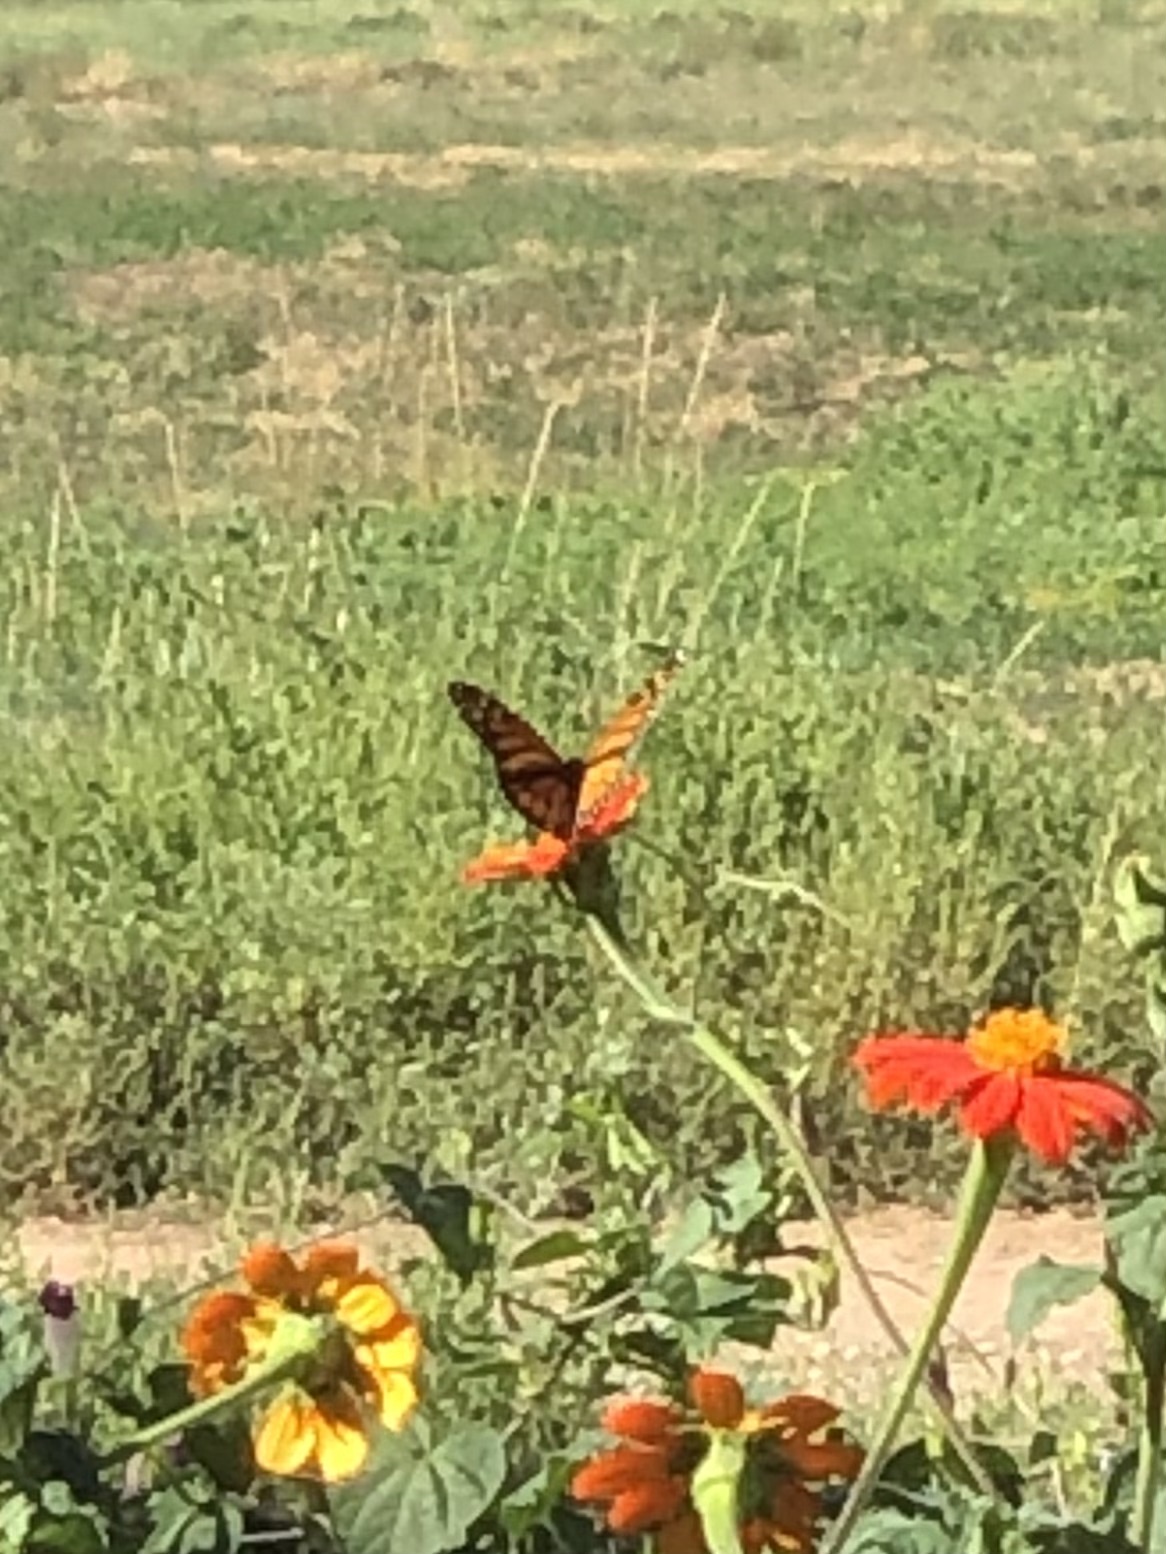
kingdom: Animalia
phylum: Arthropoda
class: Insecta
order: Lepidoptera
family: Nymphalidae
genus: Danaus
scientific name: Danaus plexippus
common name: Monarch
